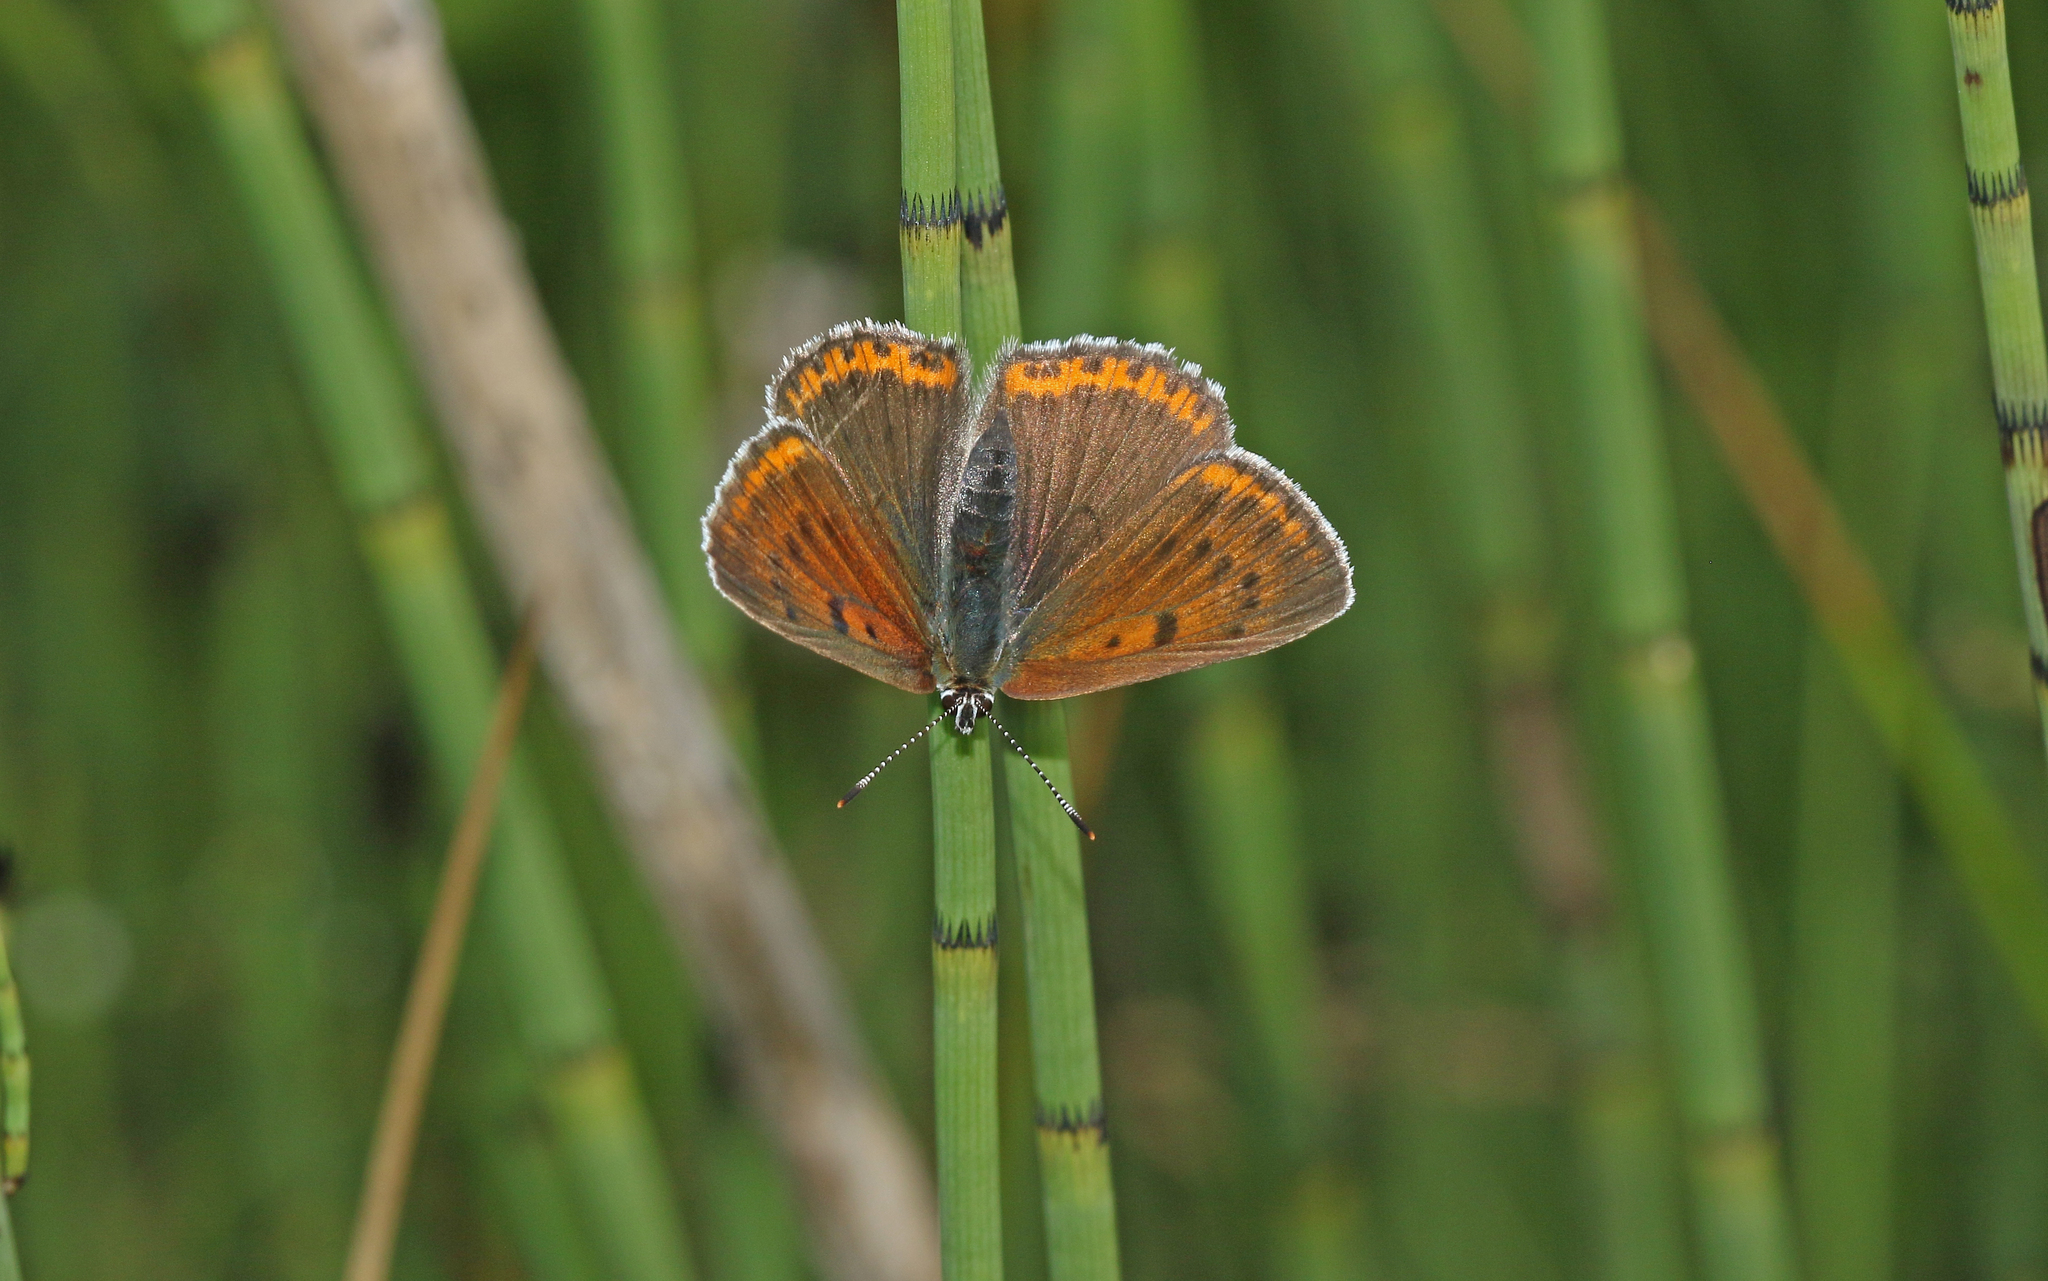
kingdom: Animalia
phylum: Arthropoda
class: Insecta
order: Lepidoptera
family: Lycaenidae
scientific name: Lycaenidae
